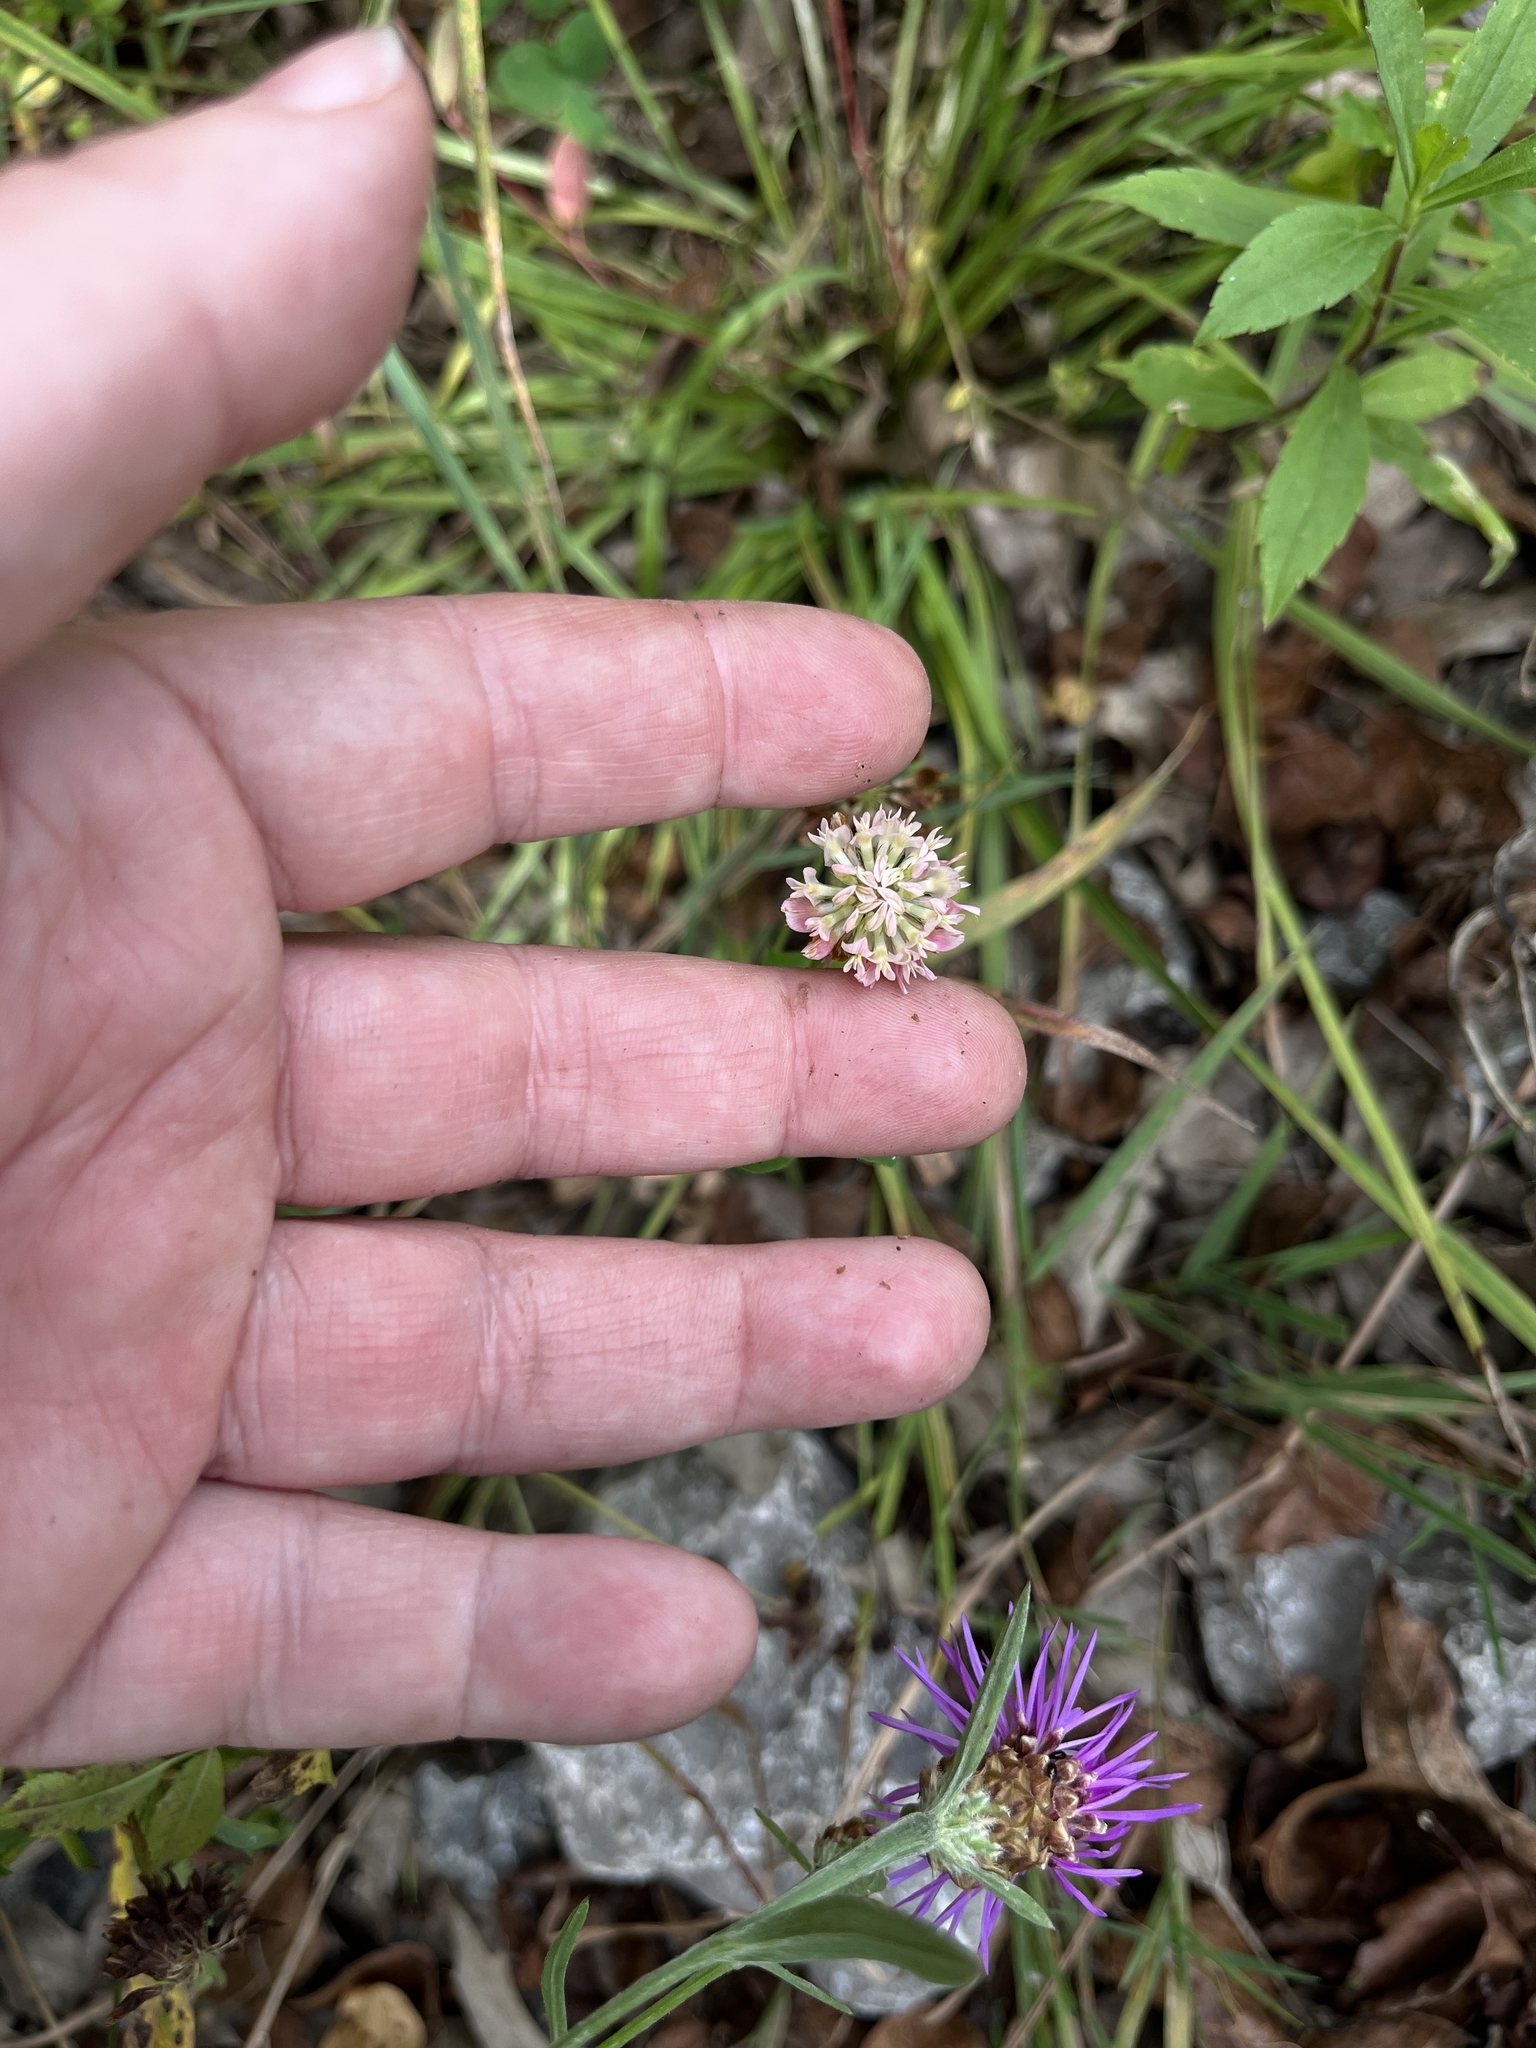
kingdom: Plantae
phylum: Tracheophyta
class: Magnoliopsida
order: Fabales
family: Fabaceae
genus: Trifolium
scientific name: Trifolium hybridum
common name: Alsike clover
